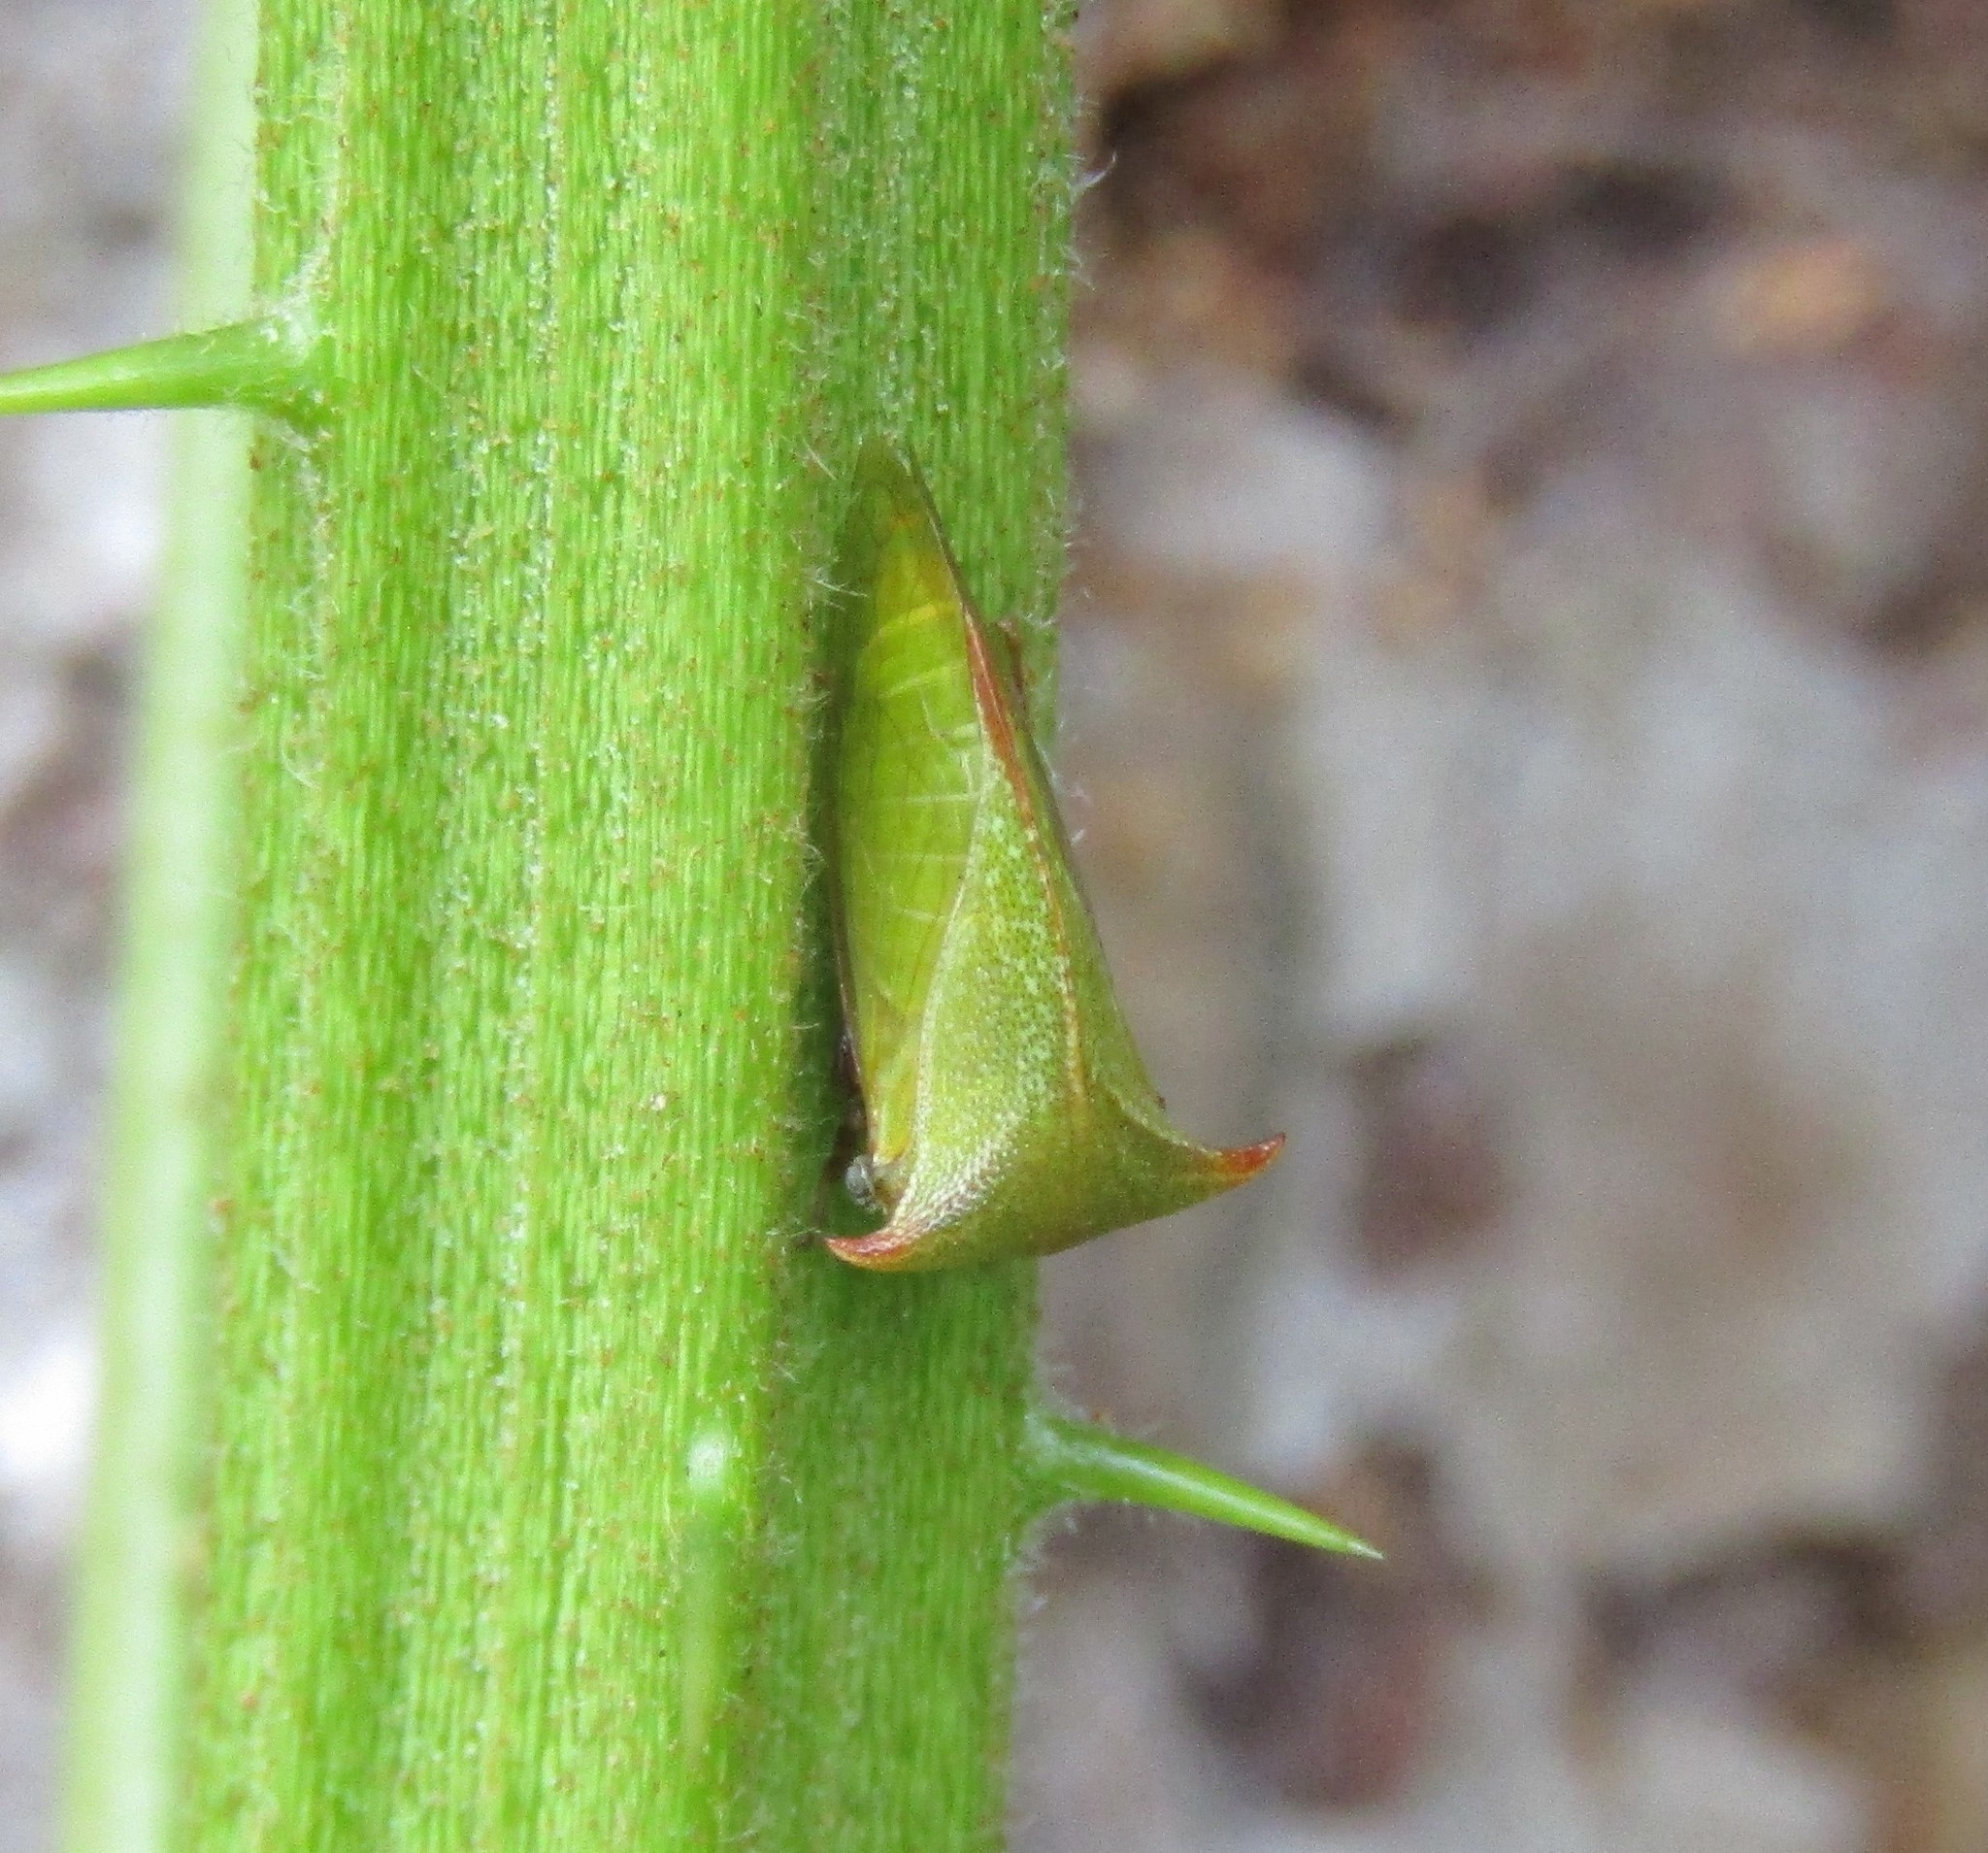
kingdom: Animalia
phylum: Arthropoda
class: Insecta
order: Hemiptera
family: Membracidae
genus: Stictocephala
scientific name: Stictocephala brevitylus
